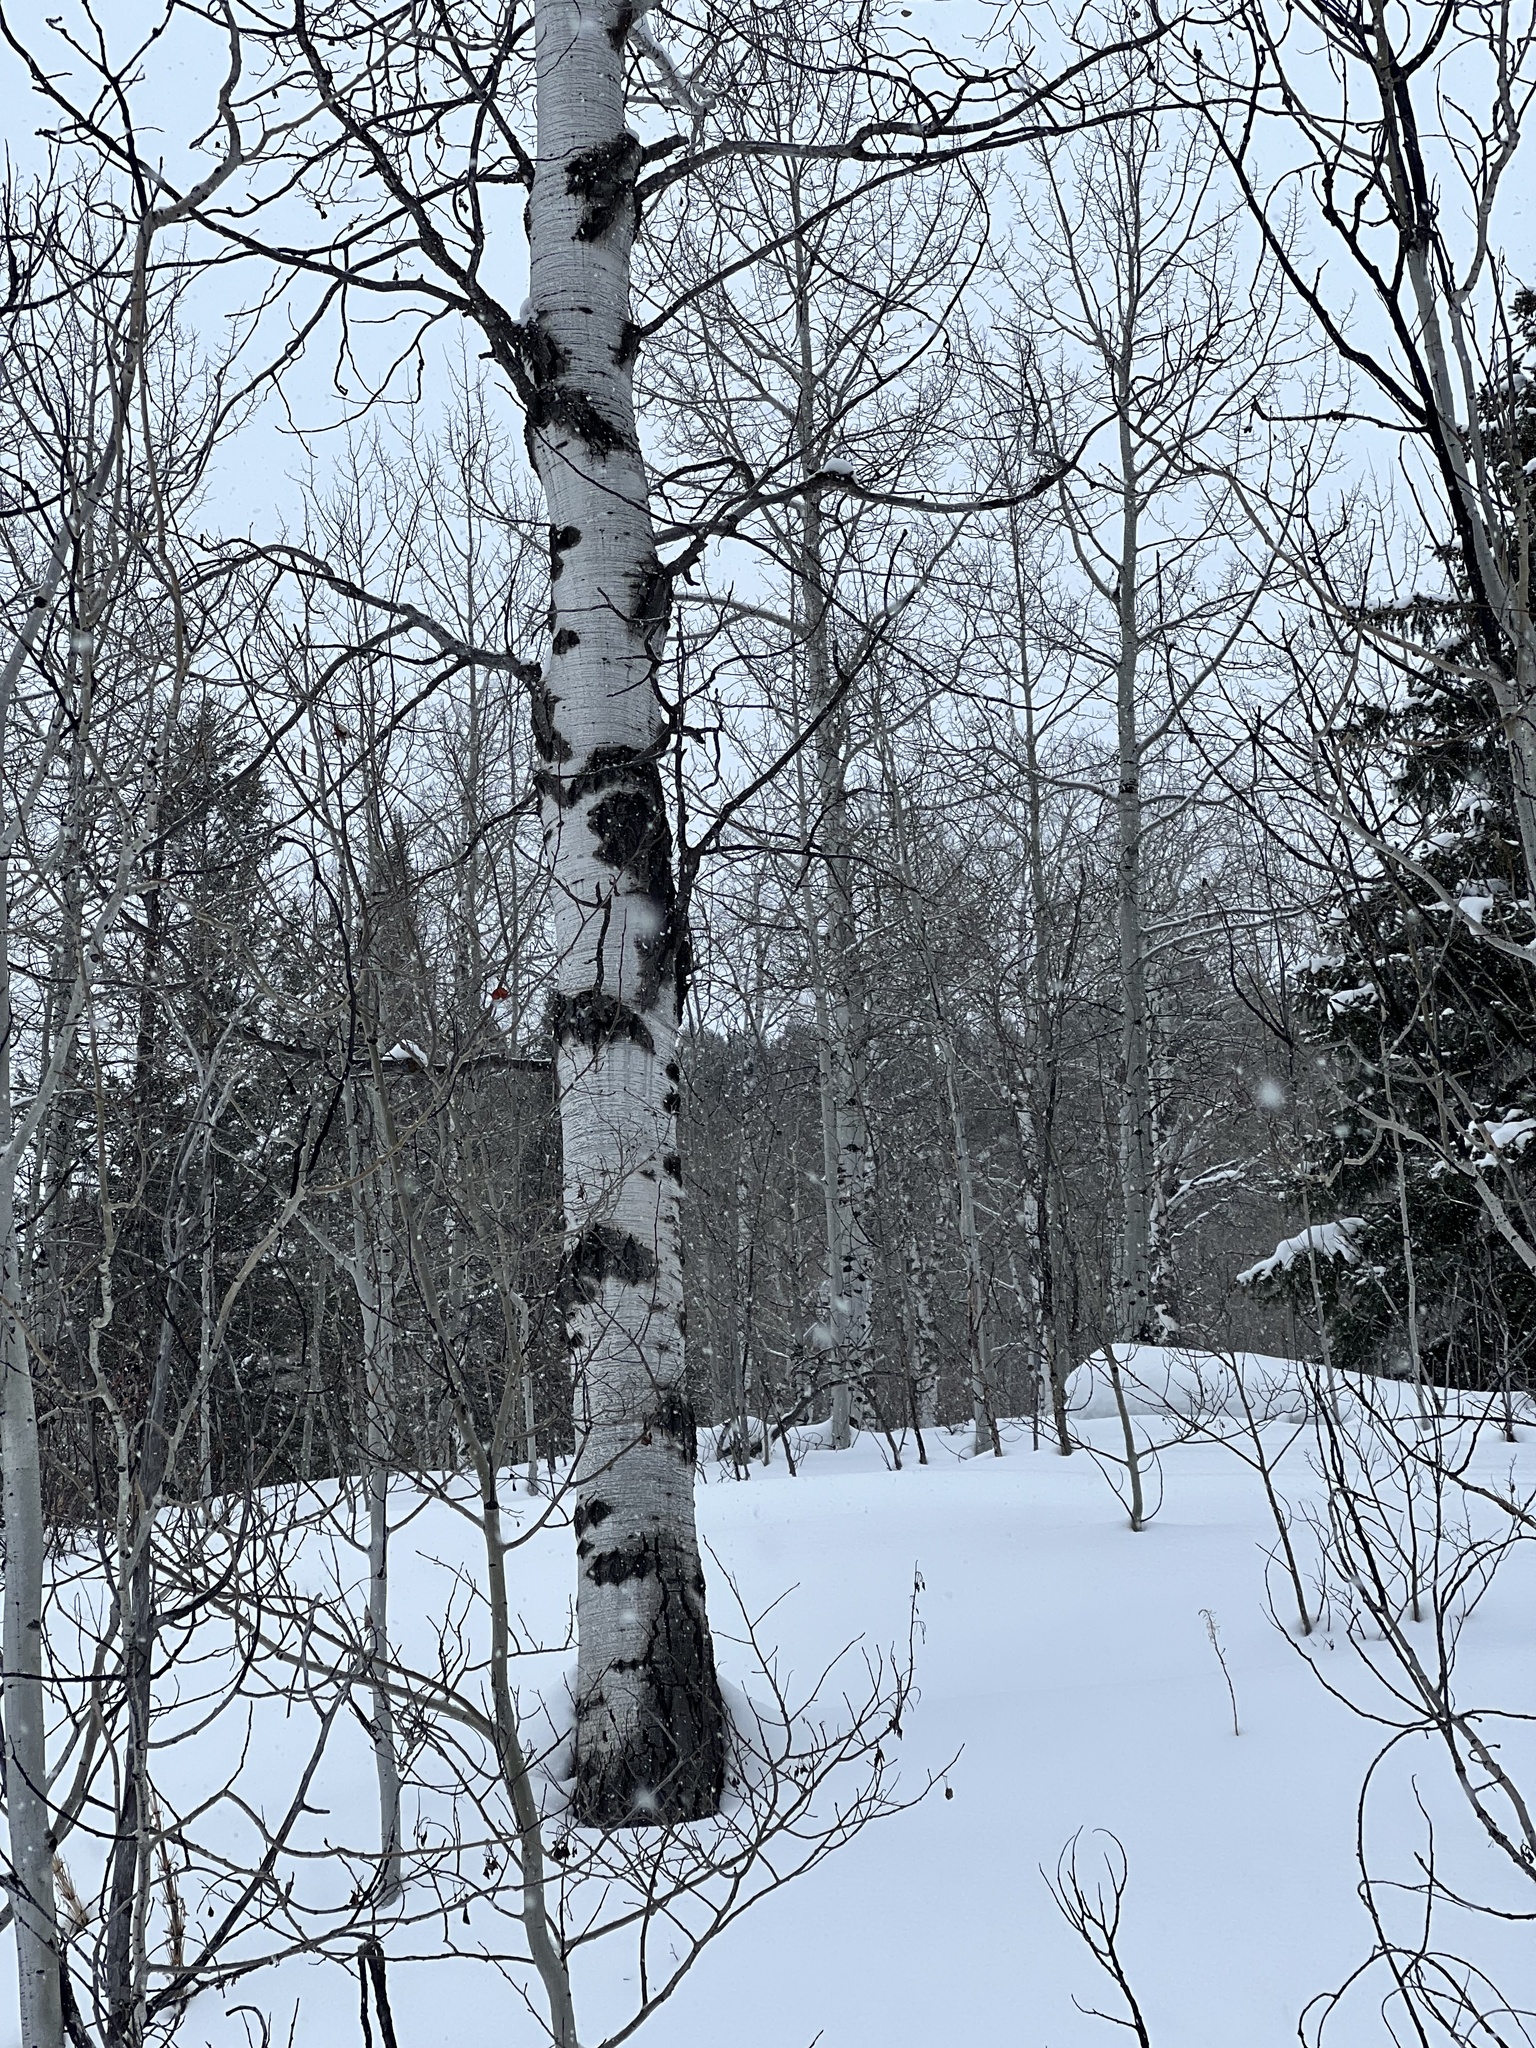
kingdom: Plantae
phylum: Tracheophyta
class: Magnoliopsida
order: Malpighiales
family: Salicaceae
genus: Populus
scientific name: Populus tremuloides
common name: Quaking aspen
